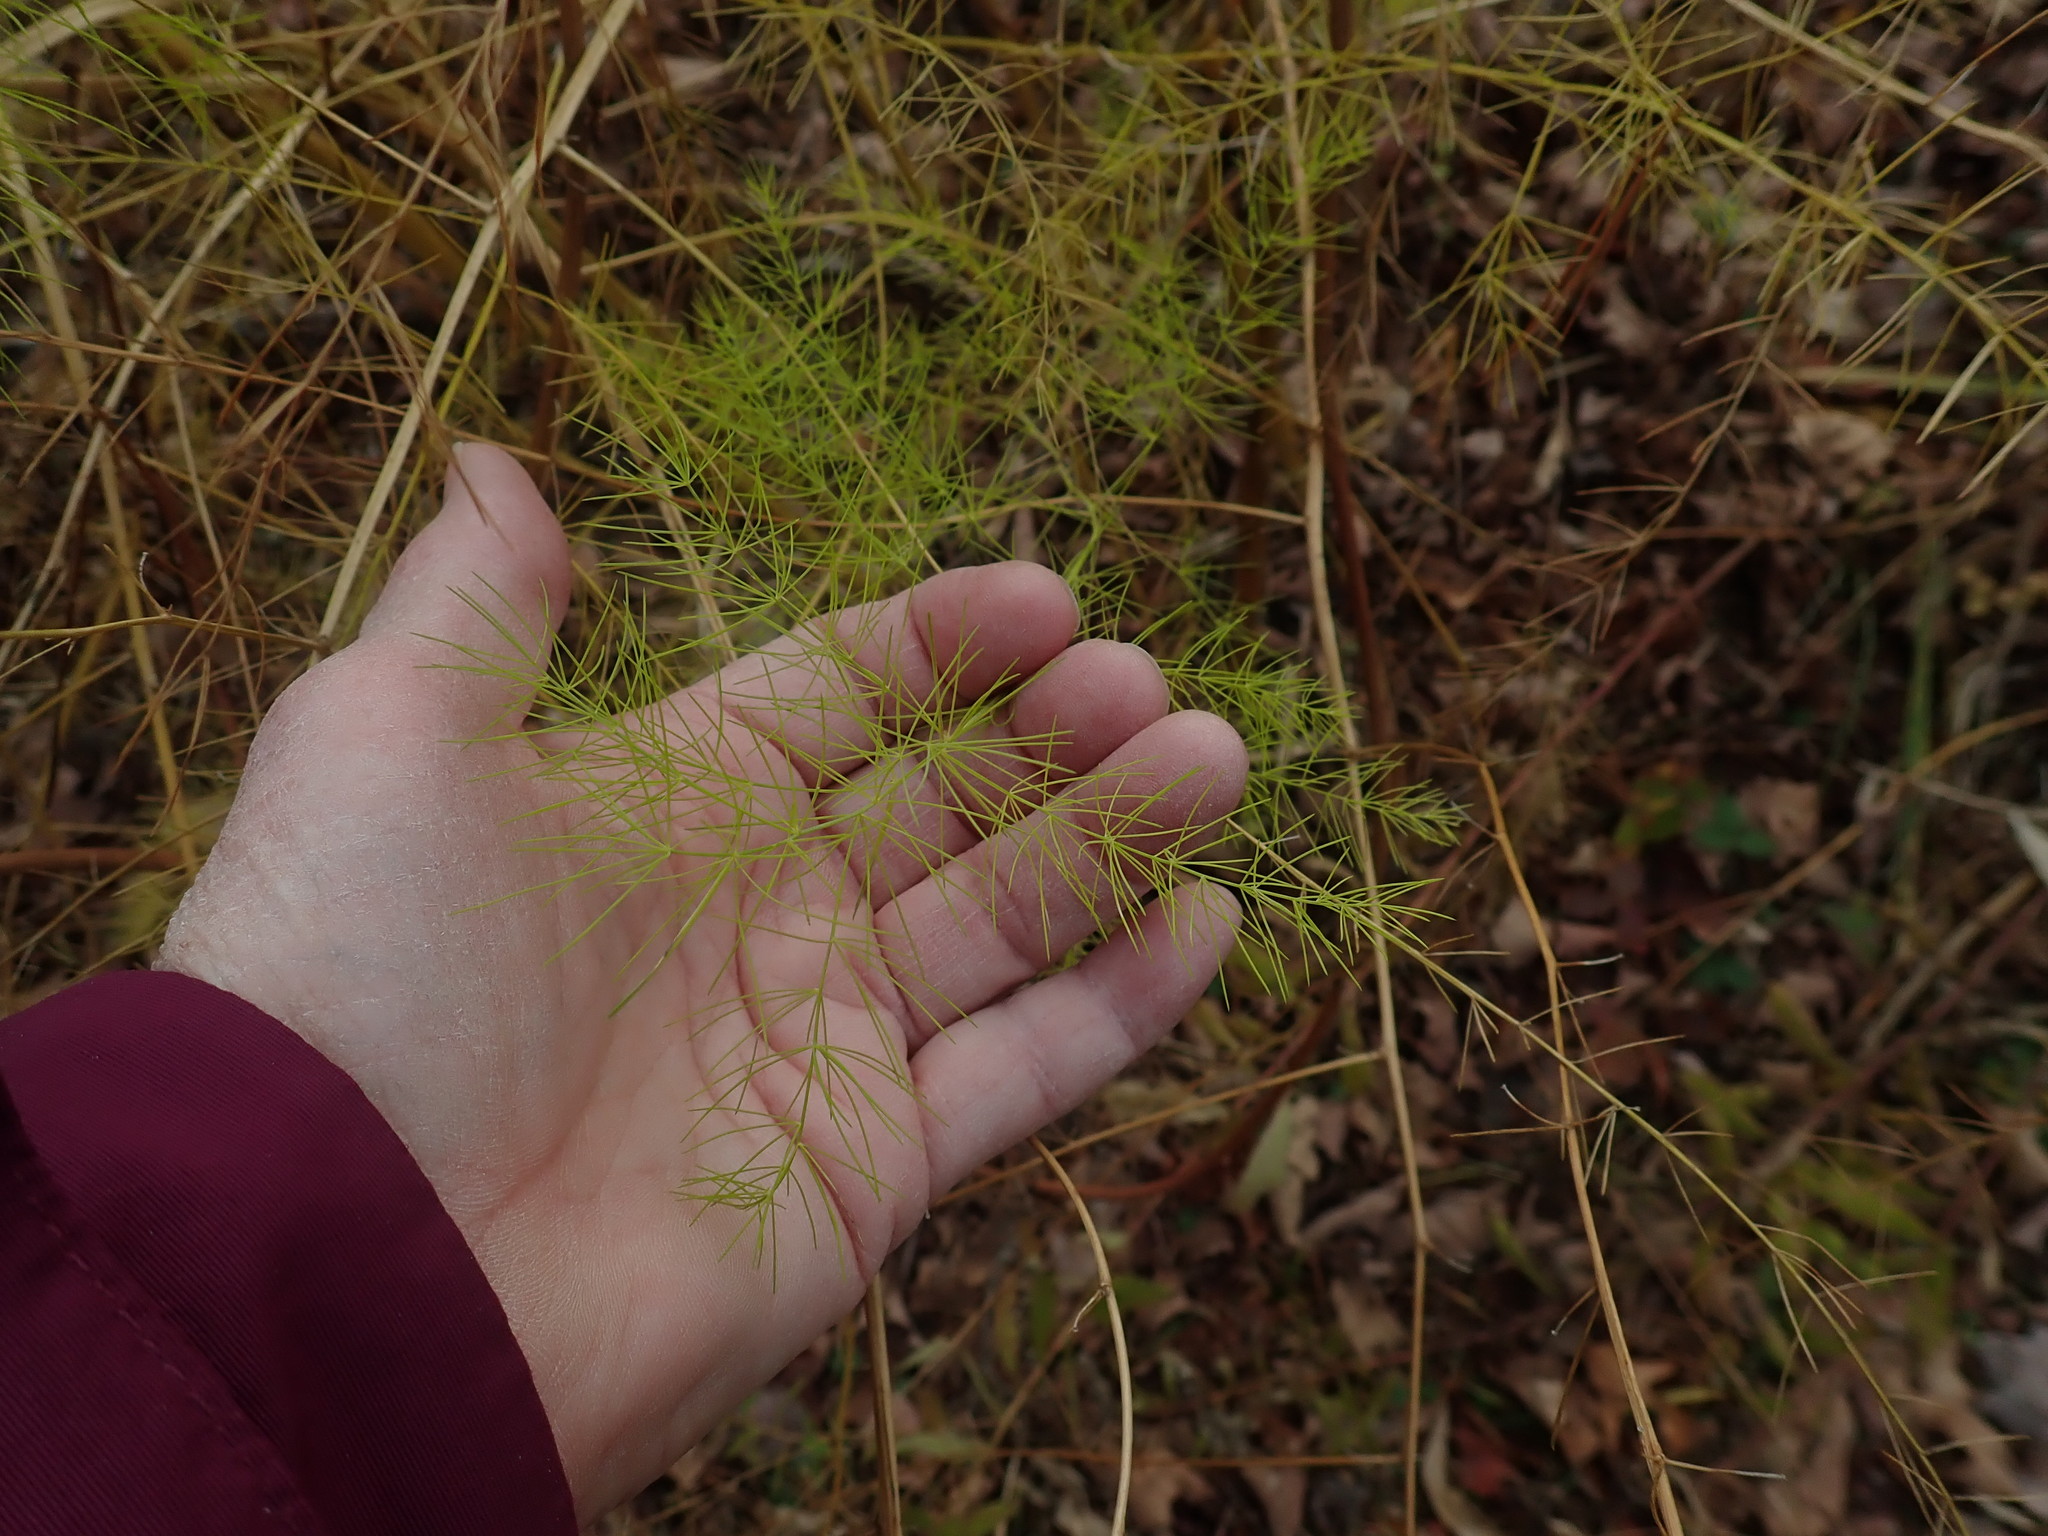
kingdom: Plantae
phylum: Tracheophyta
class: Liliopsida
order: Asparagales
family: Asparagaceae
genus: Asparagus
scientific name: Asparagus officinalis
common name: Garden asparagus
